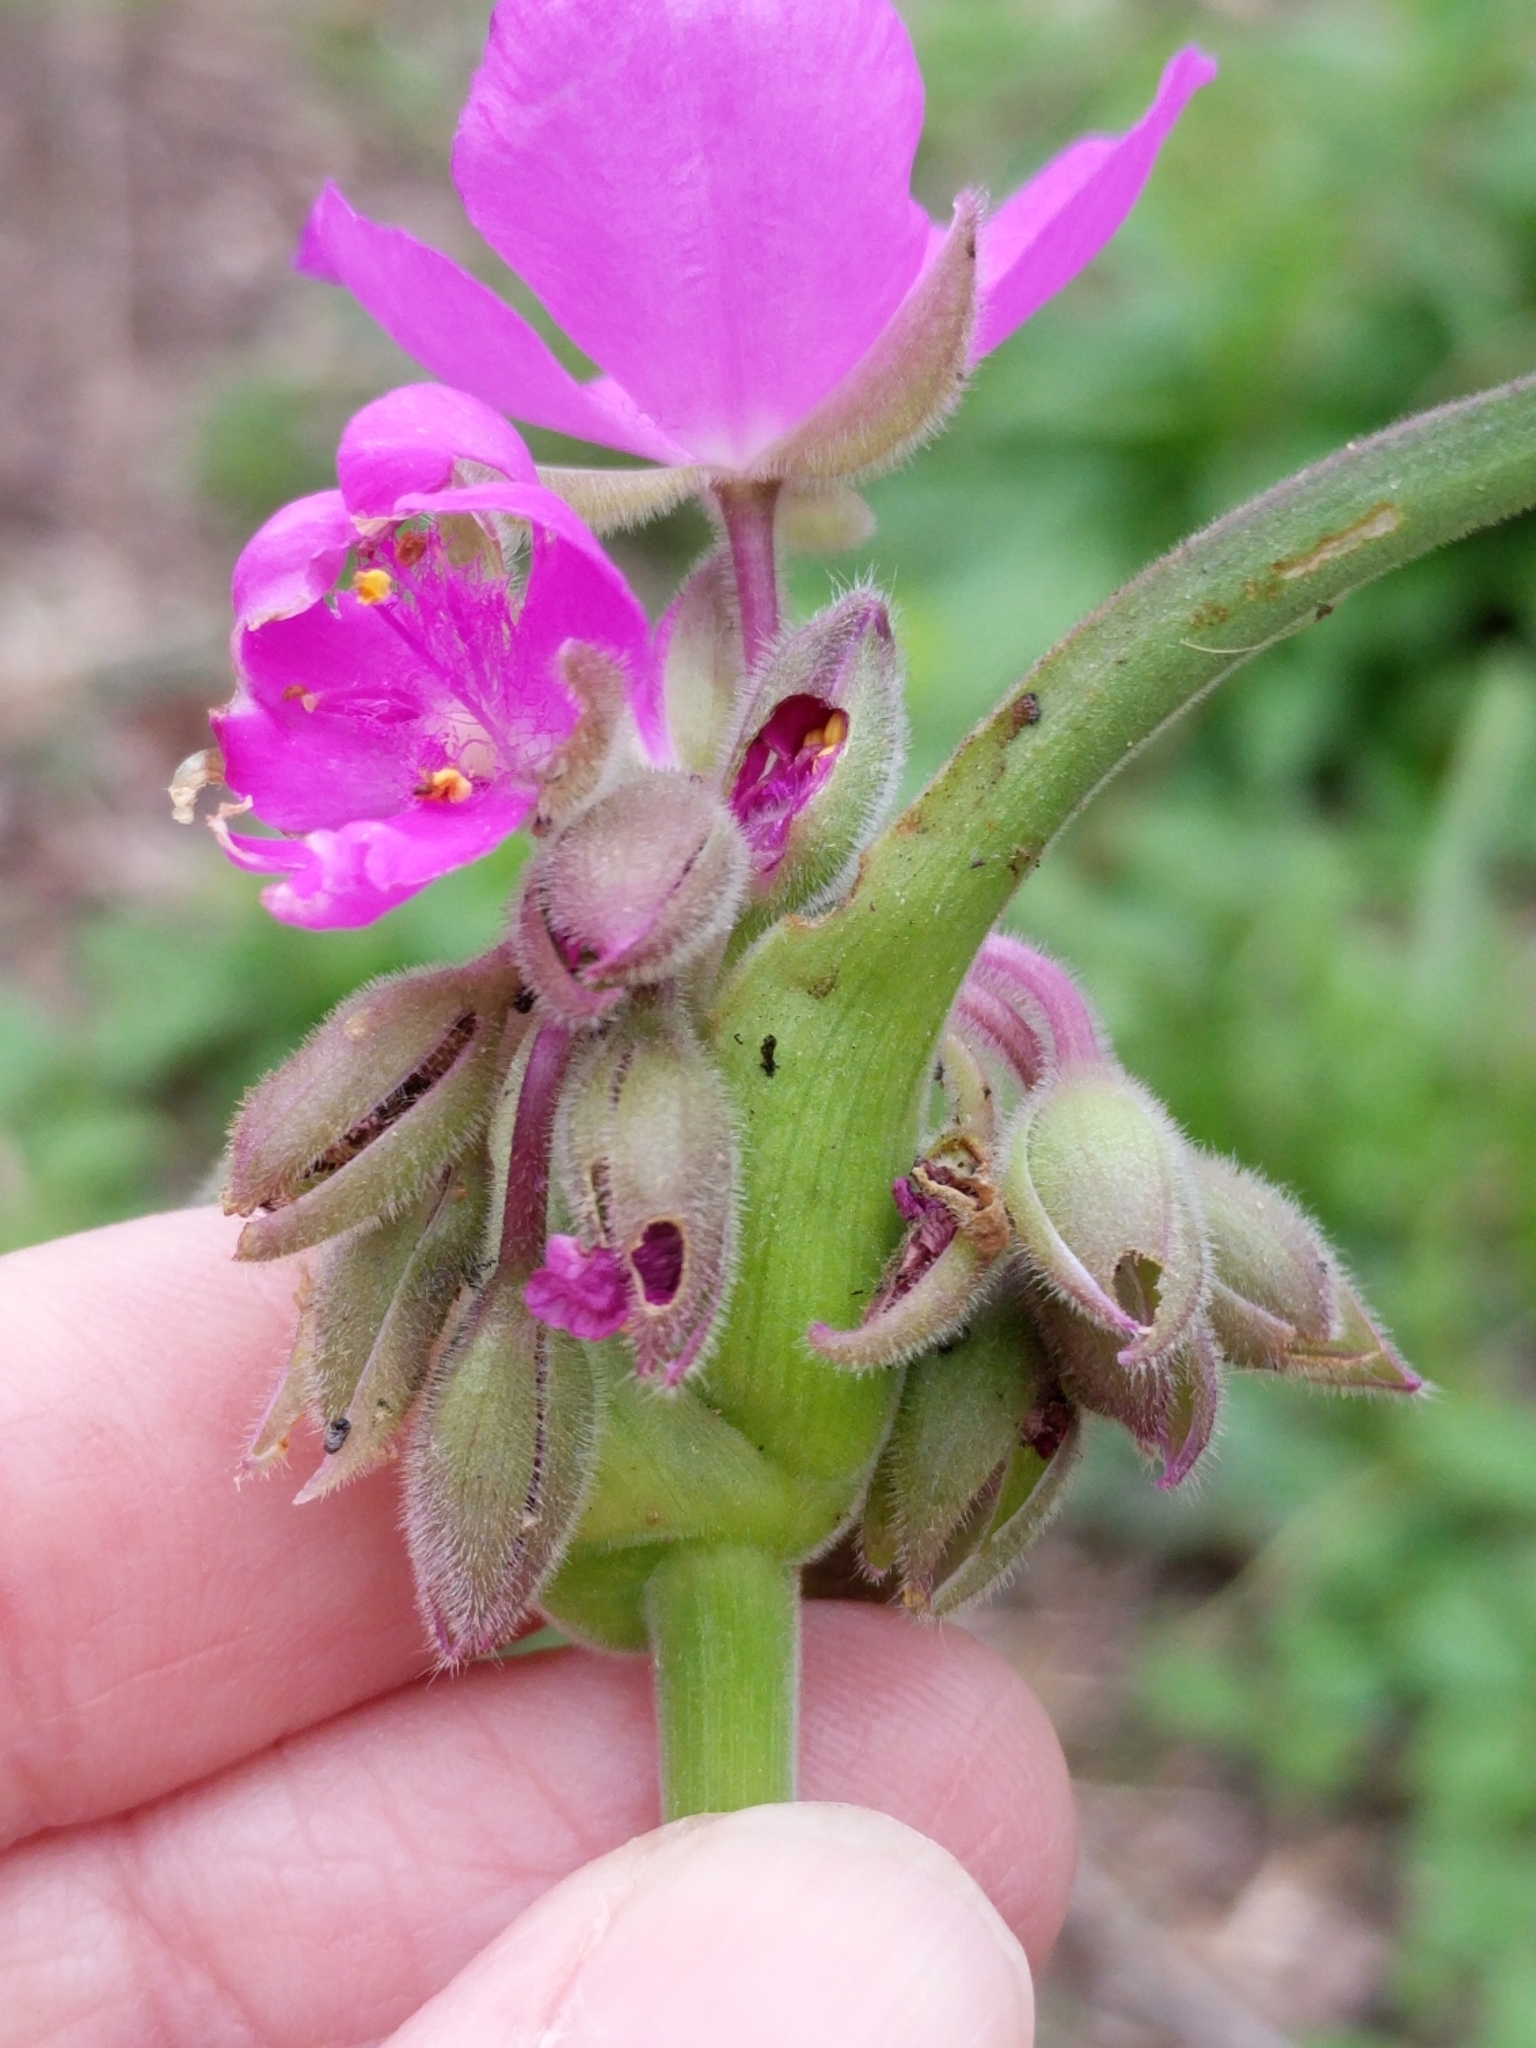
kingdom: Plantae
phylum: Tracheophyta
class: Liliopsida
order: Commelinales
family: Commelinaceae
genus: Tradescantia
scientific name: Tradescantia gigantea
